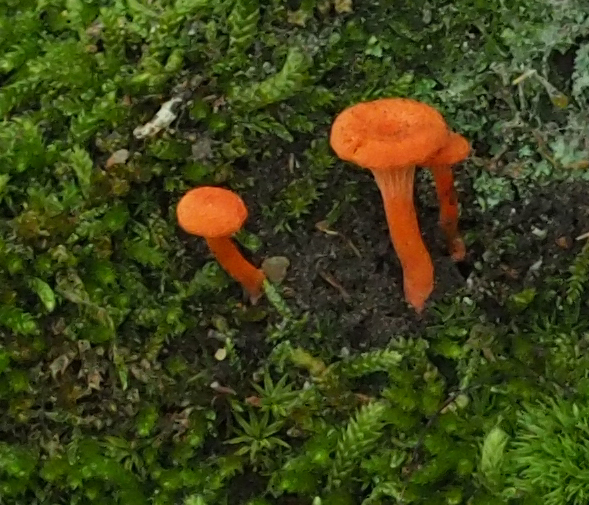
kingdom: Fungi
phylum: Basidiomycota
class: Agaricomycetes
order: Cantharellales
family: Hydnaceae
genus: Cantharellus
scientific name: Cantharellus cinnabarinus
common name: Cinnabar chanterelle
